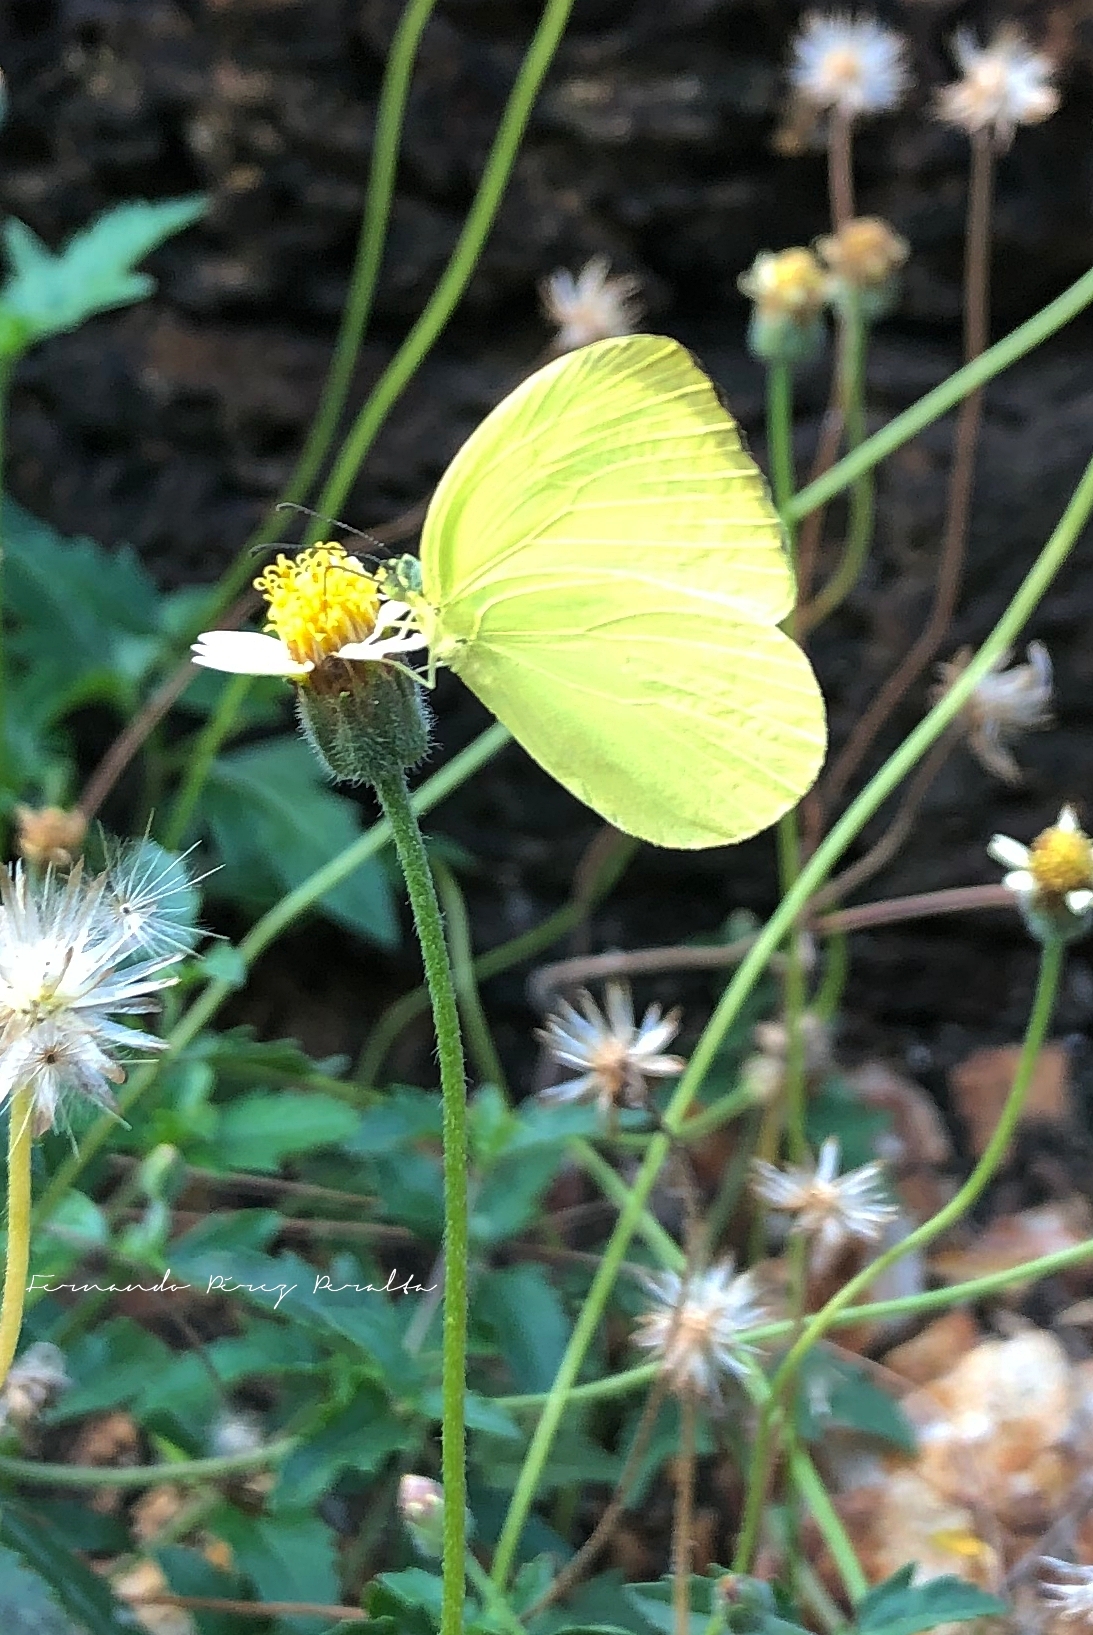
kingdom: Animalia
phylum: Arthropoda
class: Insecta
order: Lepidoptera
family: Pieridae
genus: Gandaca
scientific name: Gandaca harina
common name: Tree yellow
